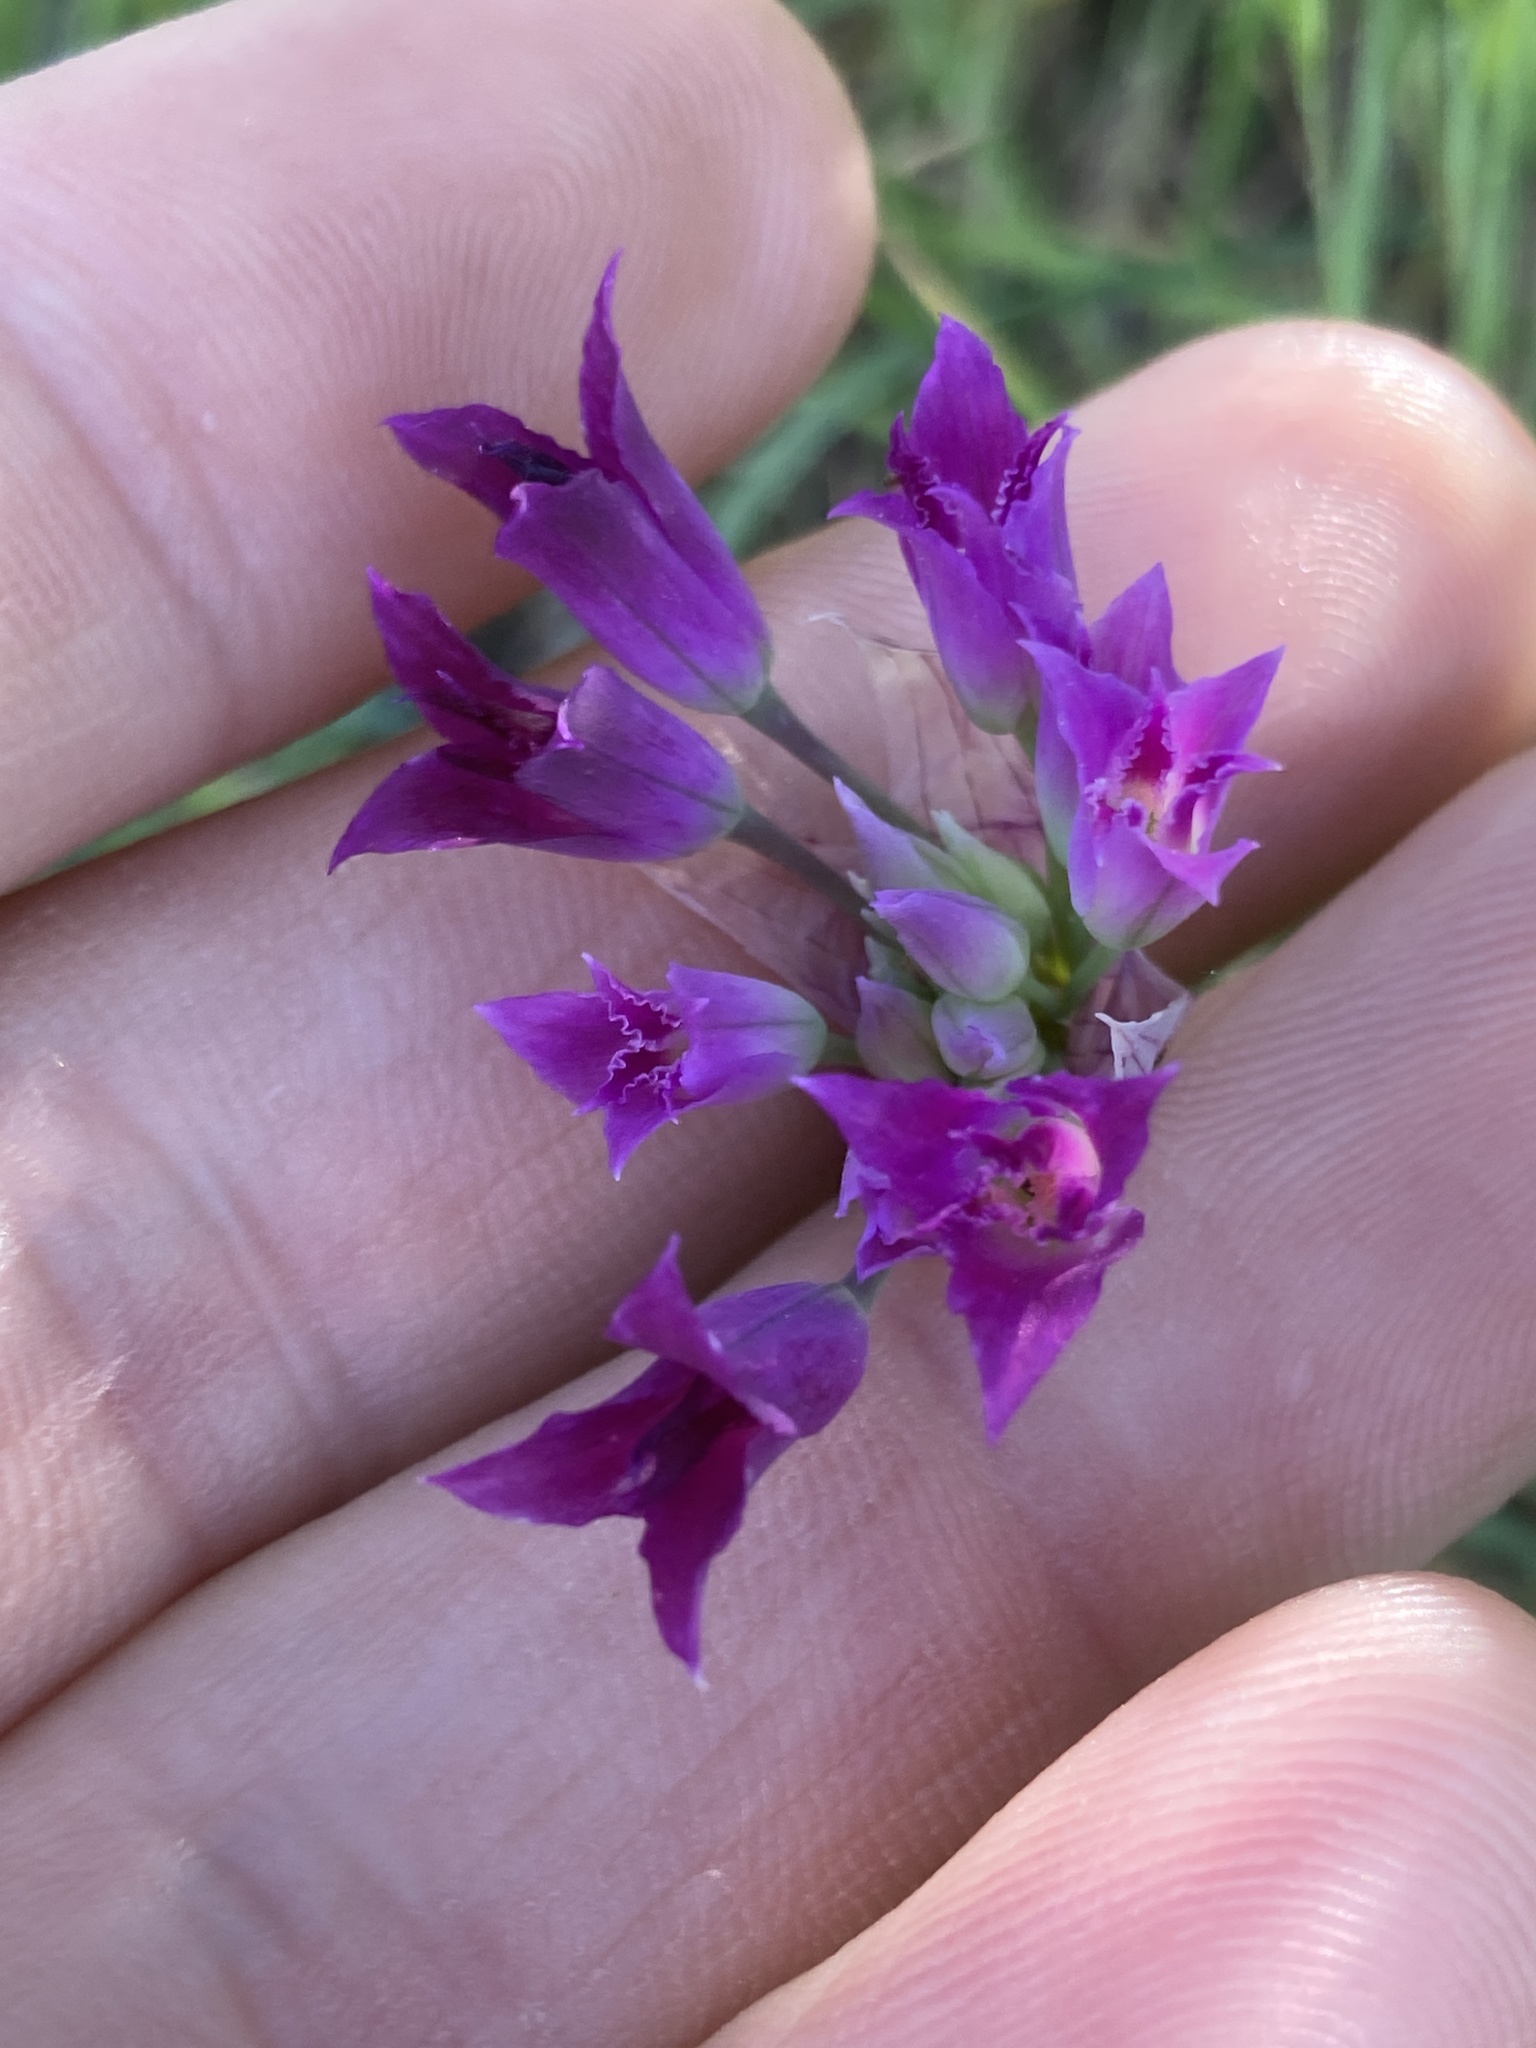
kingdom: Plantae
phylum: Tracheophyta
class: Liliopsida
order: Asparagales
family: Amaryllidaceae
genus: Allium
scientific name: Allium crispum
